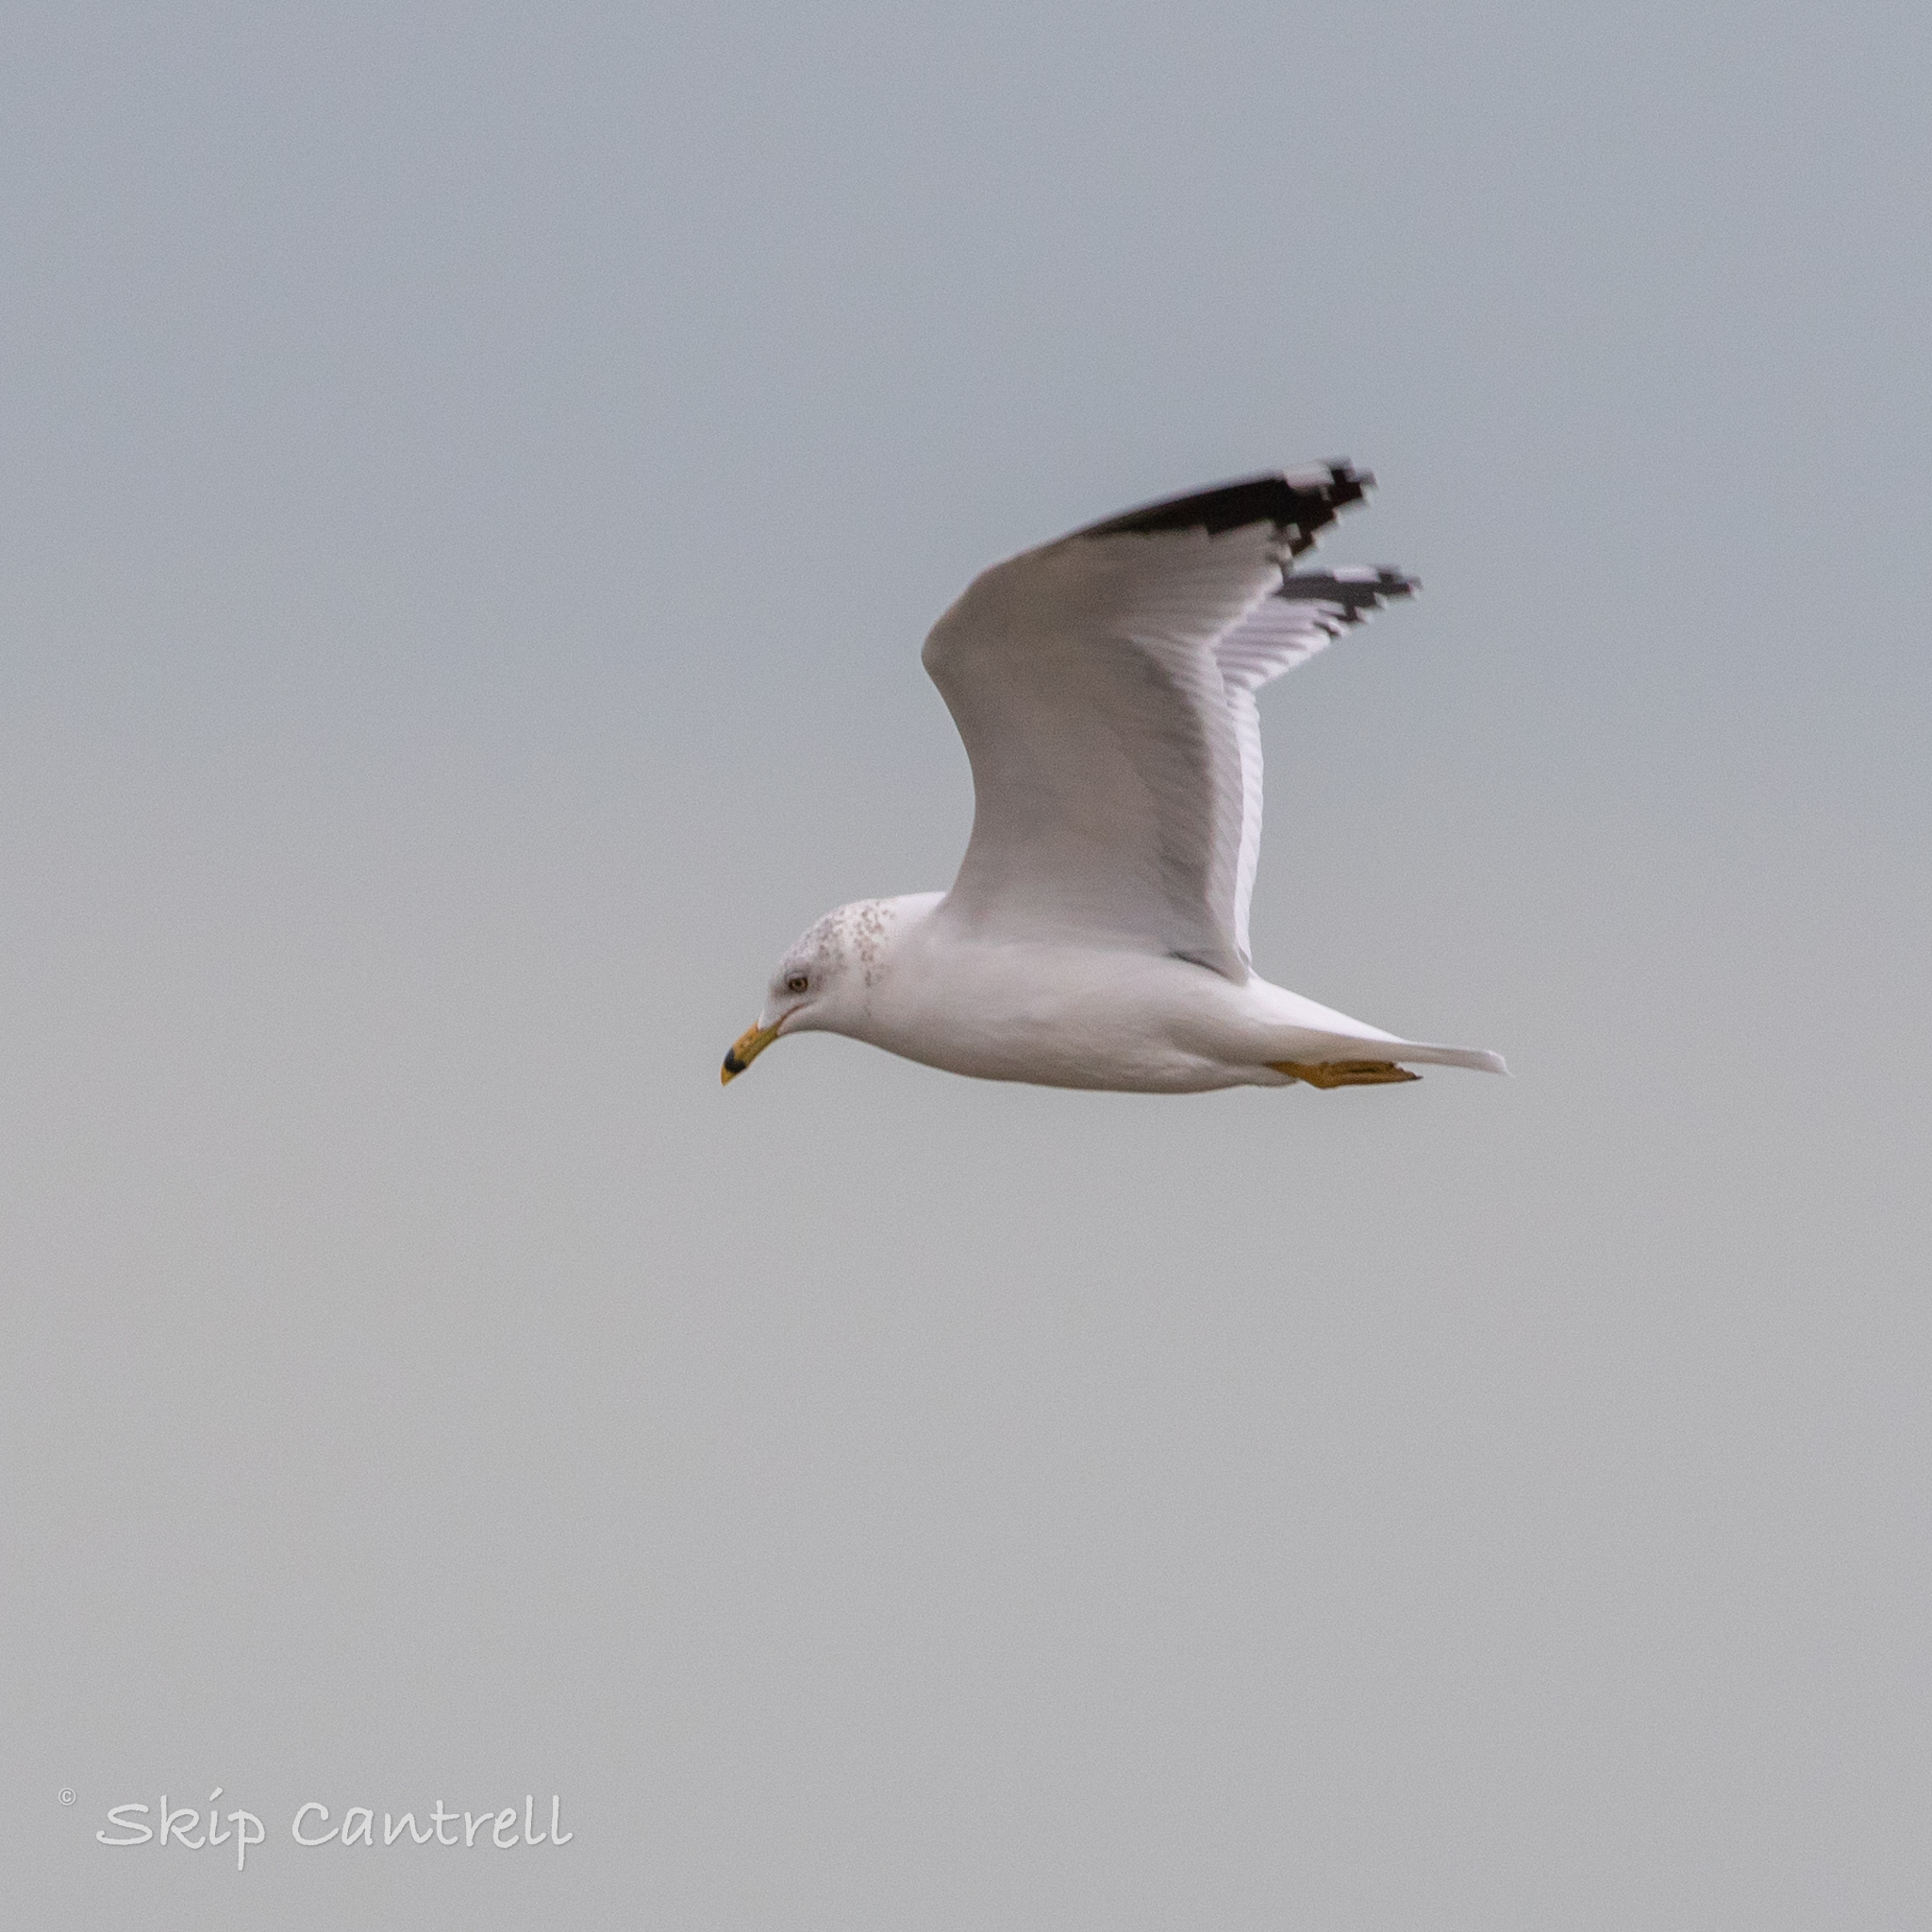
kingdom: Animalia
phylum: Chordata
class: Aves
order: Charadriiformes
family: Laridae
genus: Larus
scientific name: Larus delawarensis
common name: Ring-billed gull
